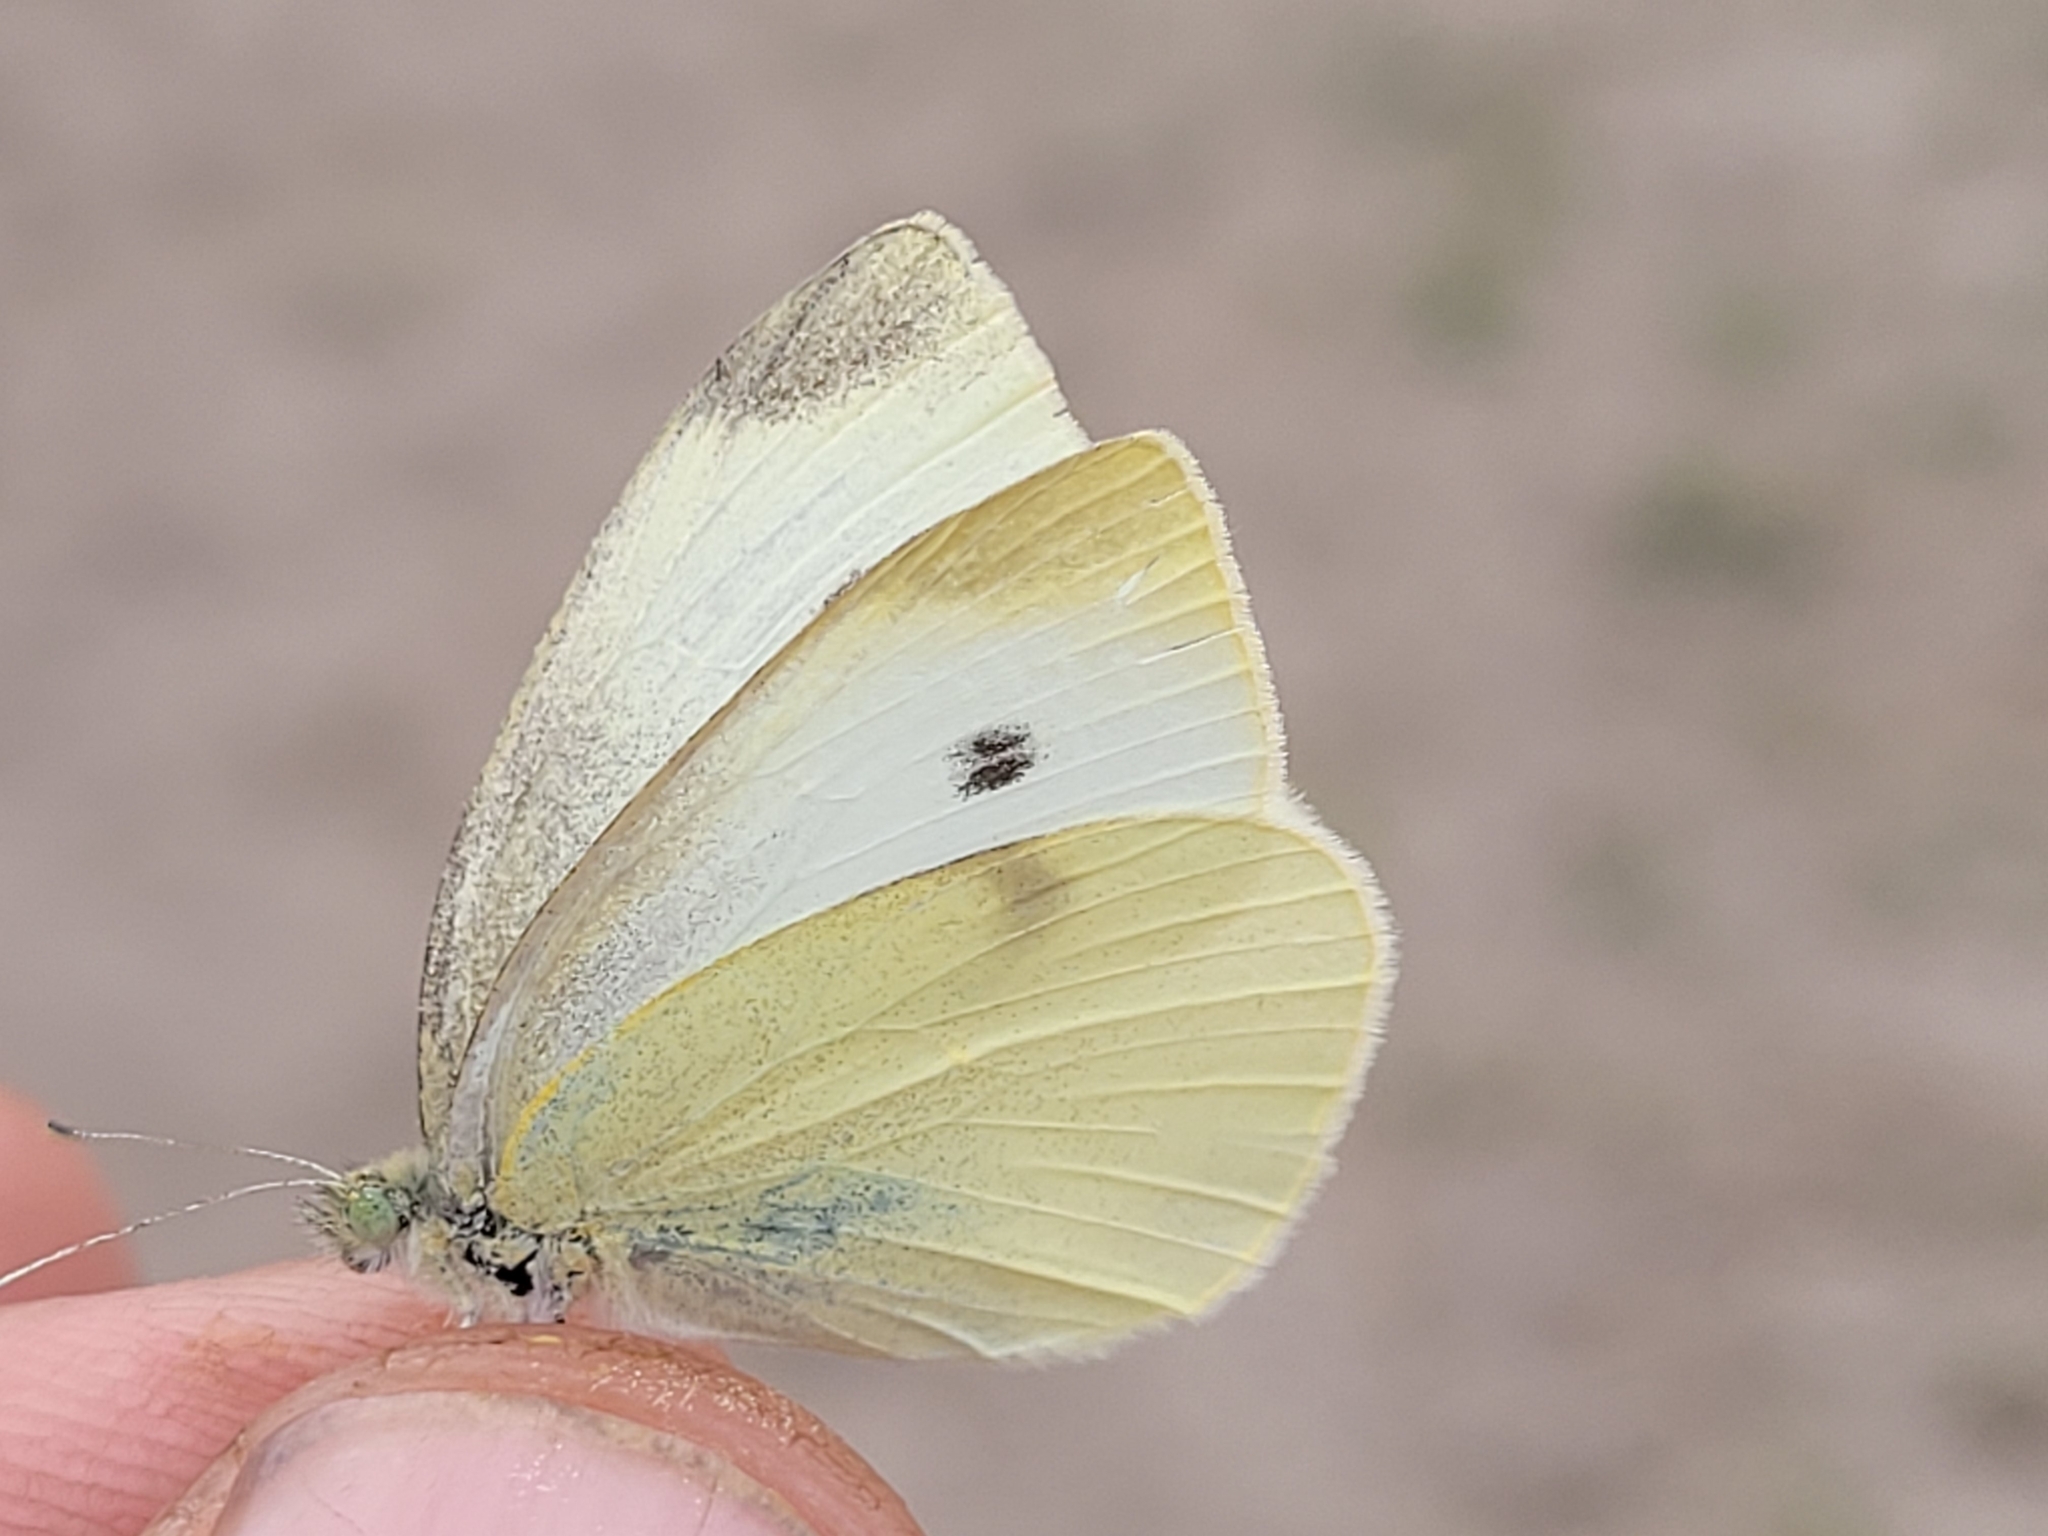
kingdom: Animalia
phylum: Arthropoda
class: Insecta
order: Lepidoptera
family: Pieridae
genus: Pieris
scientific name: Pieris rapae
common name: Small white
